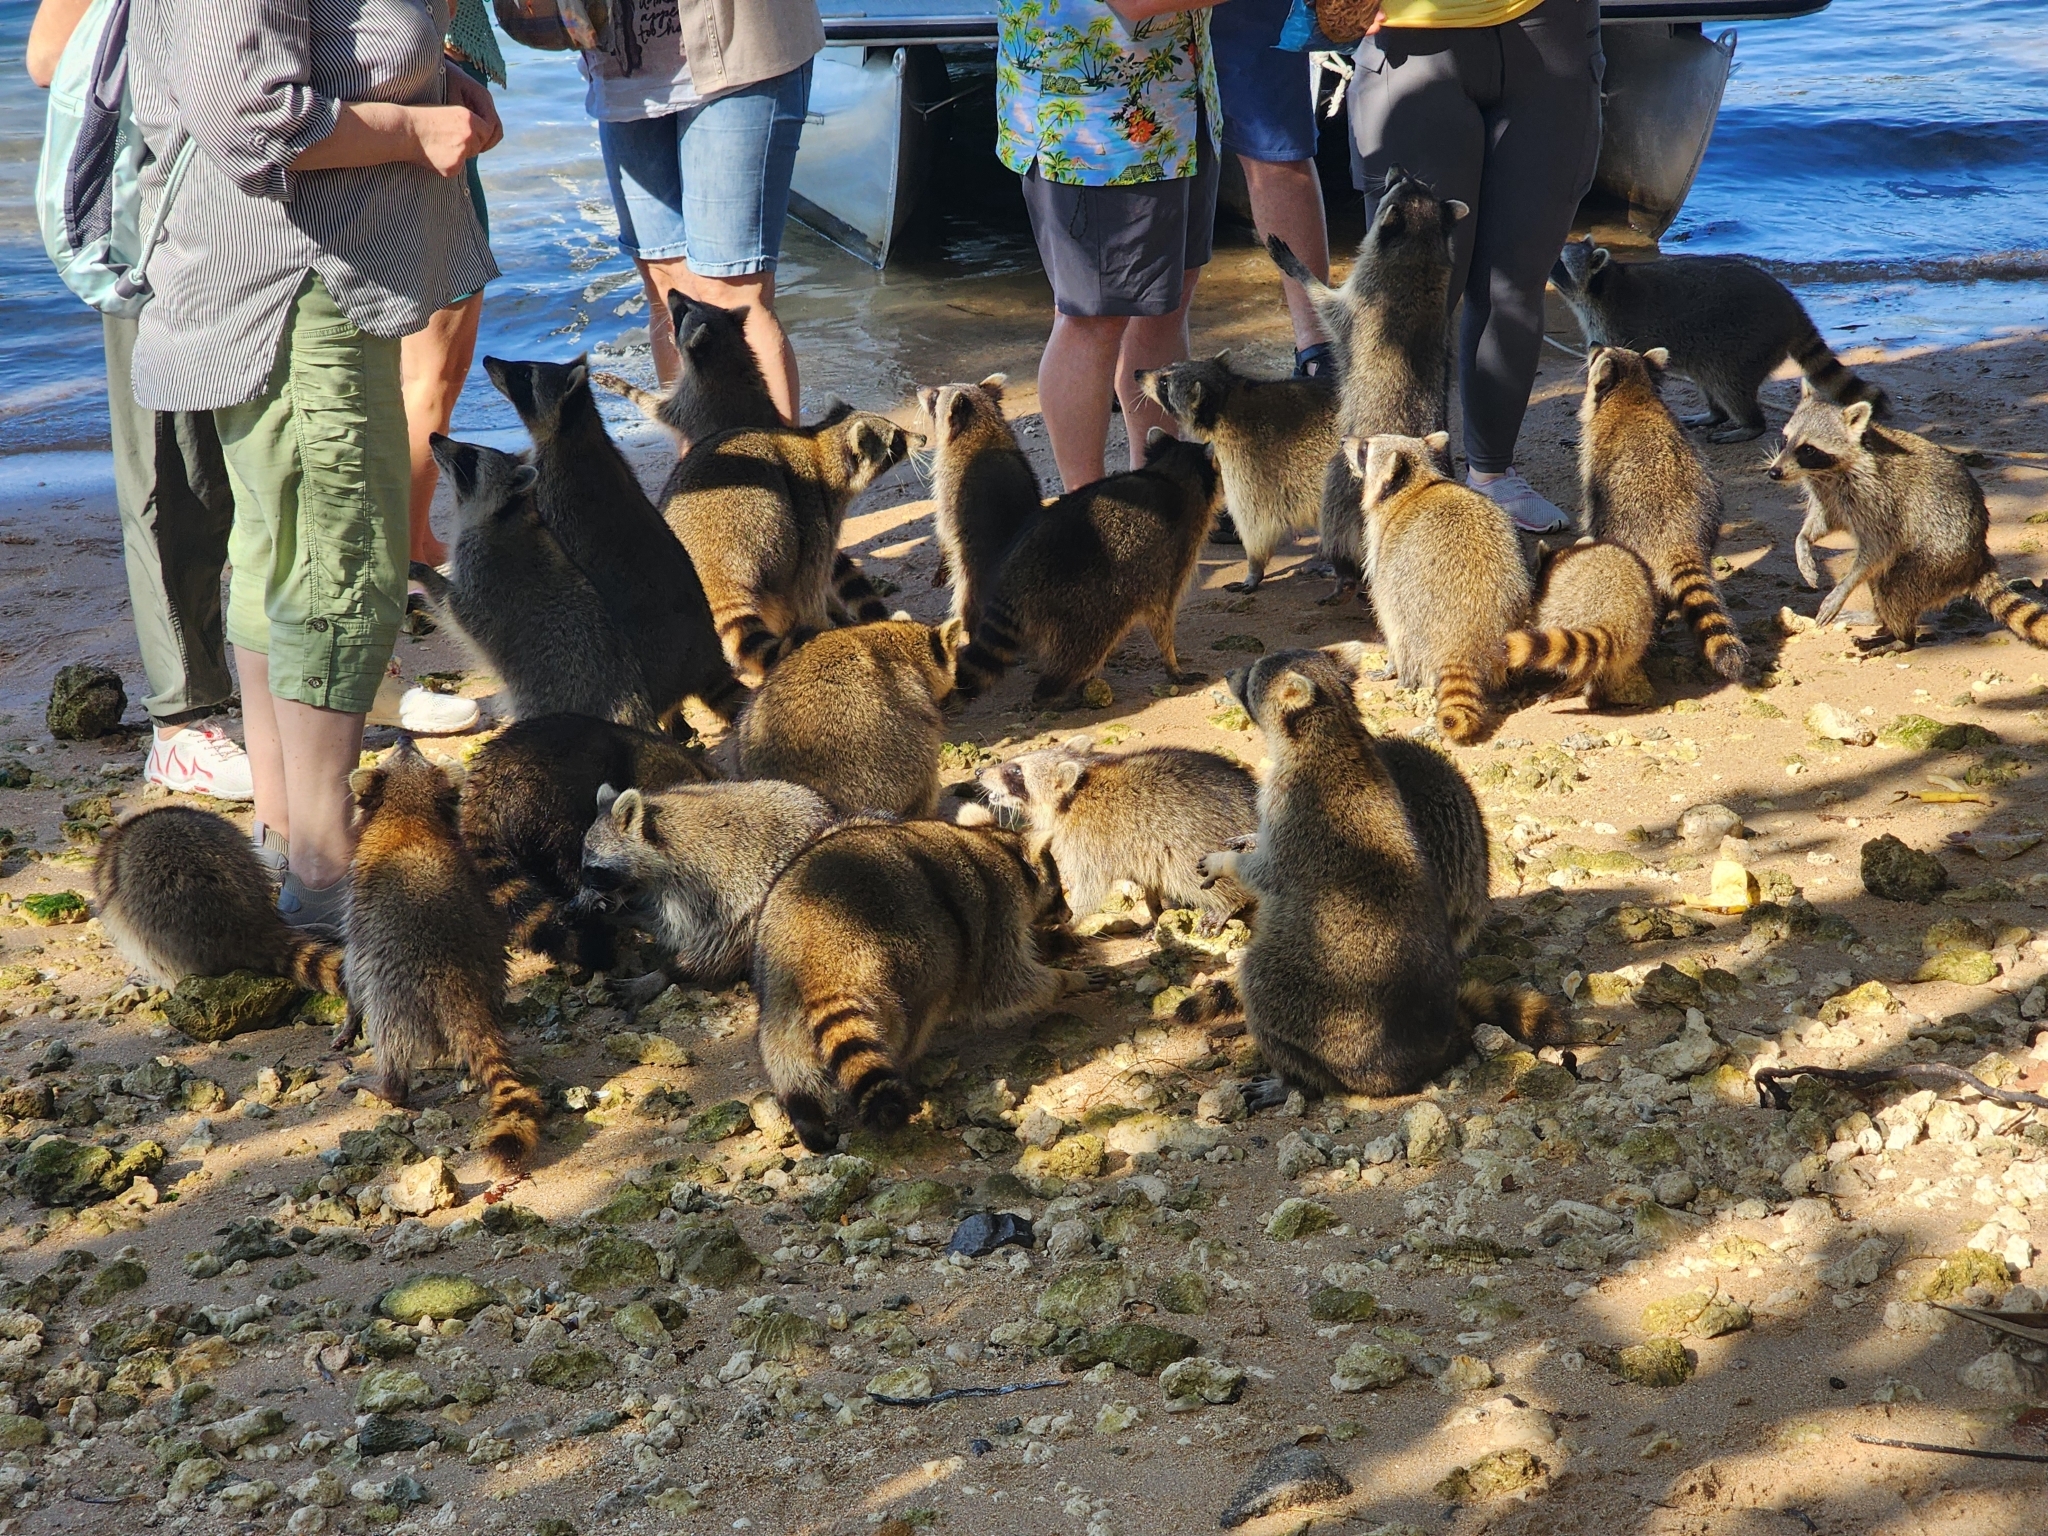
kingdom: Animalia
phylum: Chordata
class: Mammalia
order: Carnivora
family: Procyonidae
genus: Procyon
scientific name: Procyon lotor
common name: Raccoon
